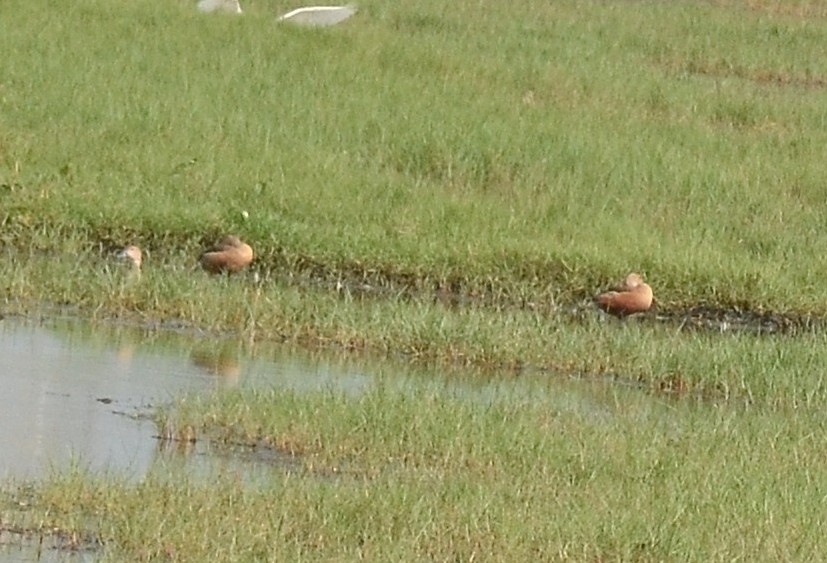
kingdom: Animalia
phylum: Chordata
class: Aves
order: Anseriformes
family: Anatidae
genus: Dendrocygna
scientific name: Dendrocygna javanica
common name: Lesser whistling-duck
